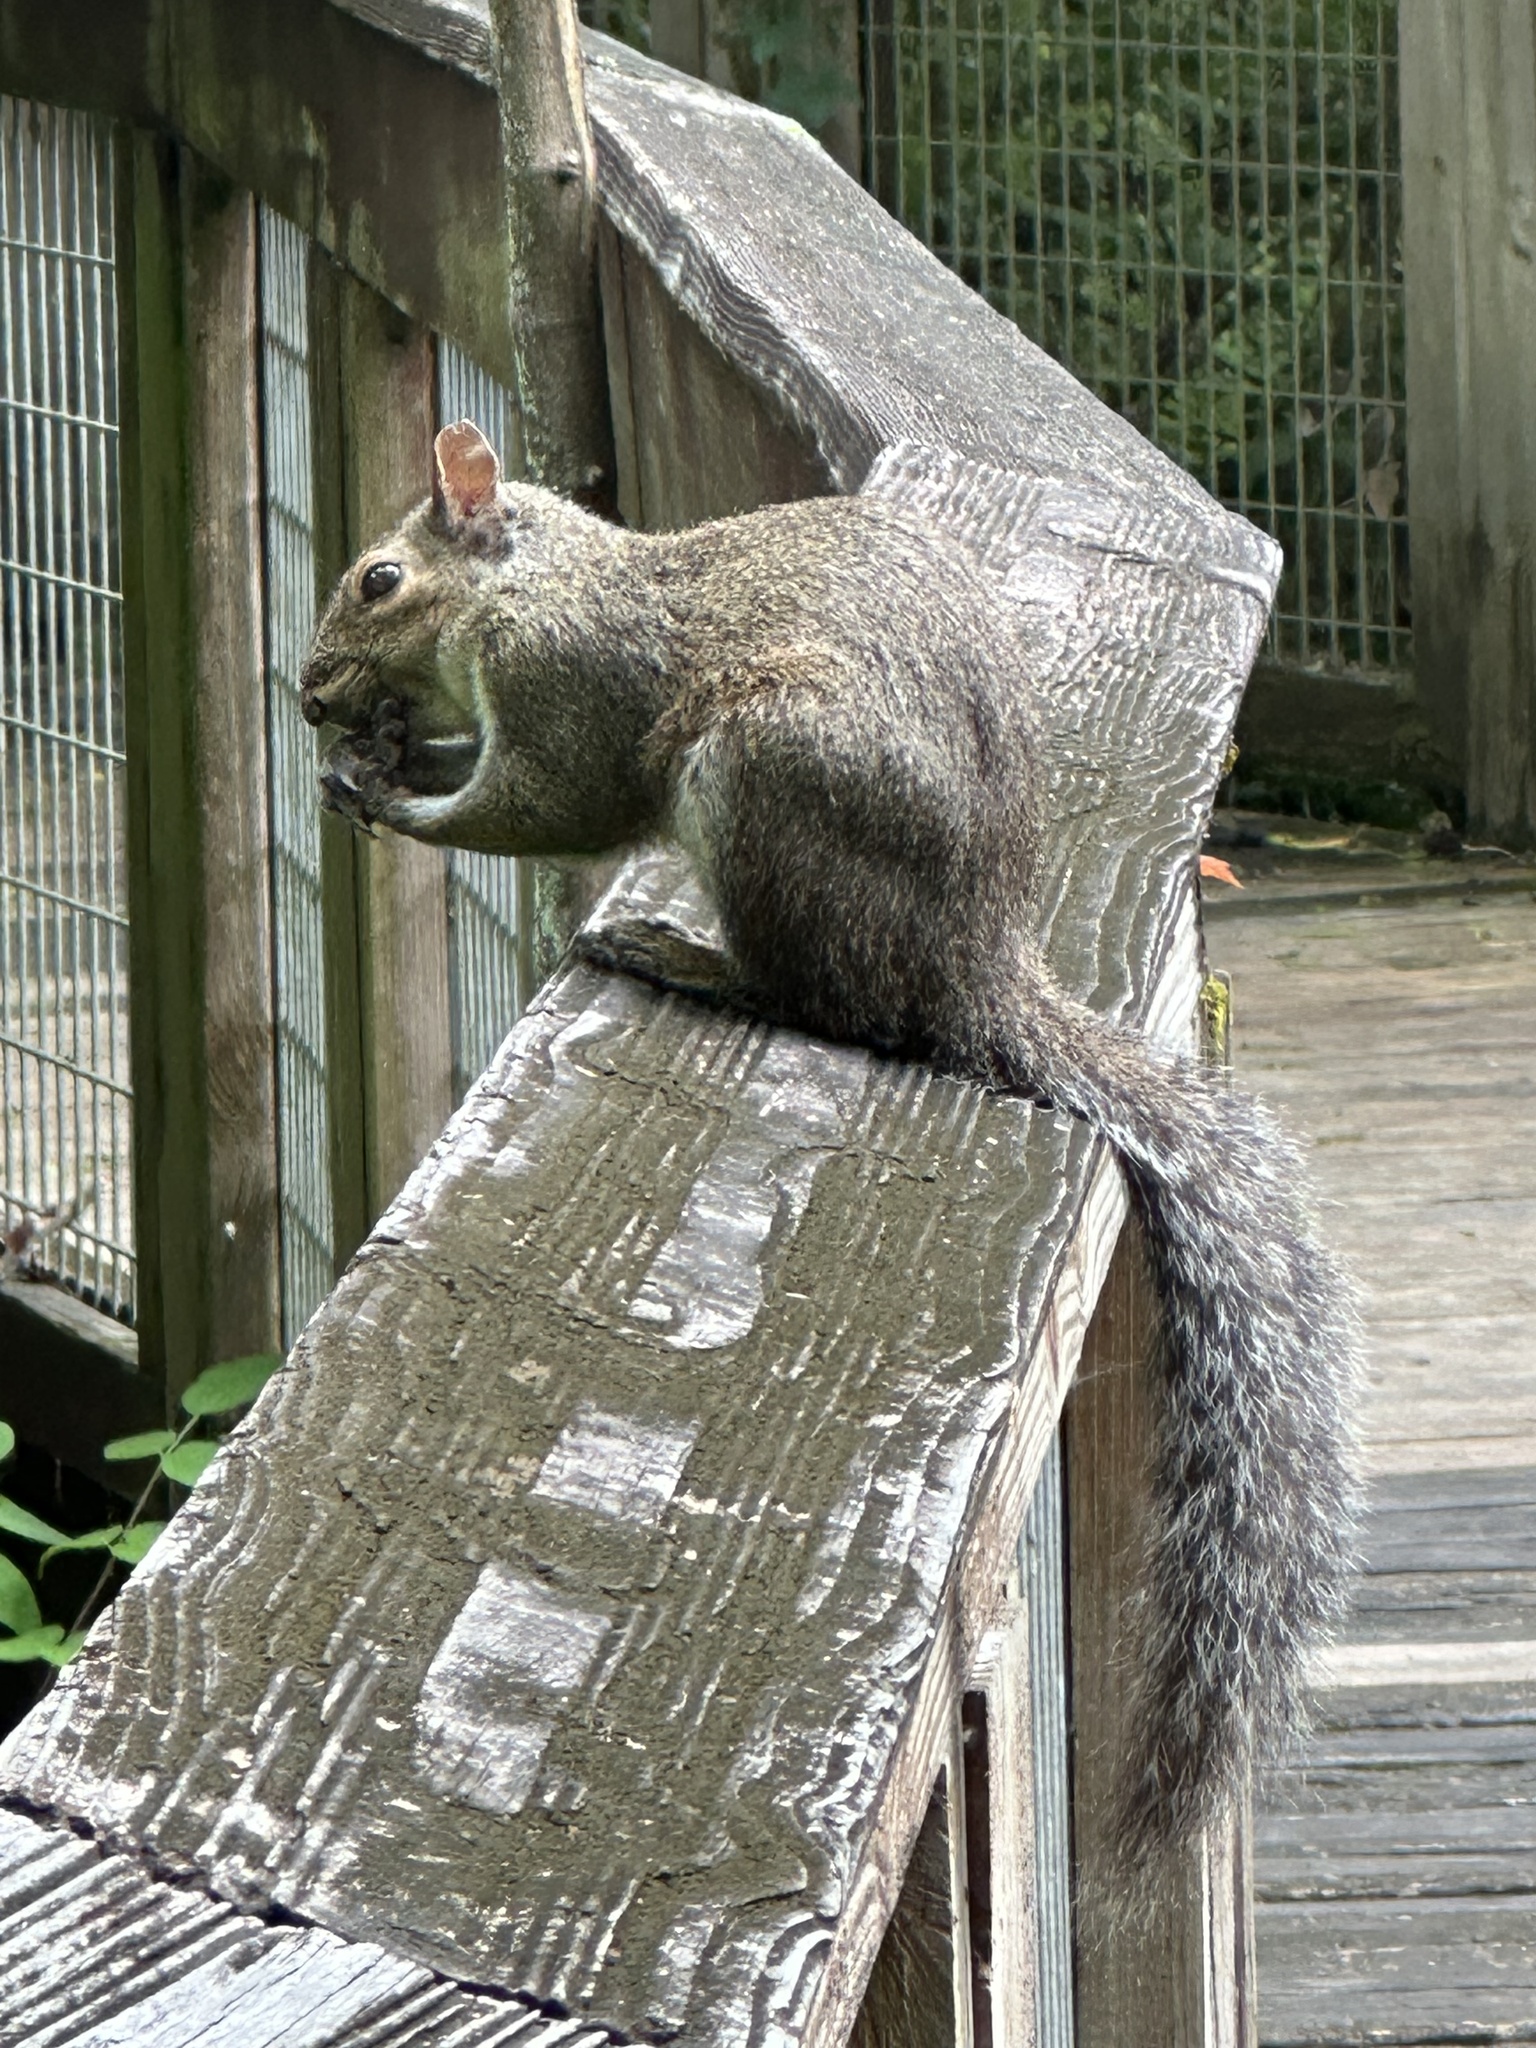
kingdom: Animalia
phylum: Chordata
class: Mammalia
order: Rodentia
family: Sciuridae
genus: Sciurus
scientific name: Sciurus carolinensis
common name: Eastern gray squirrel
